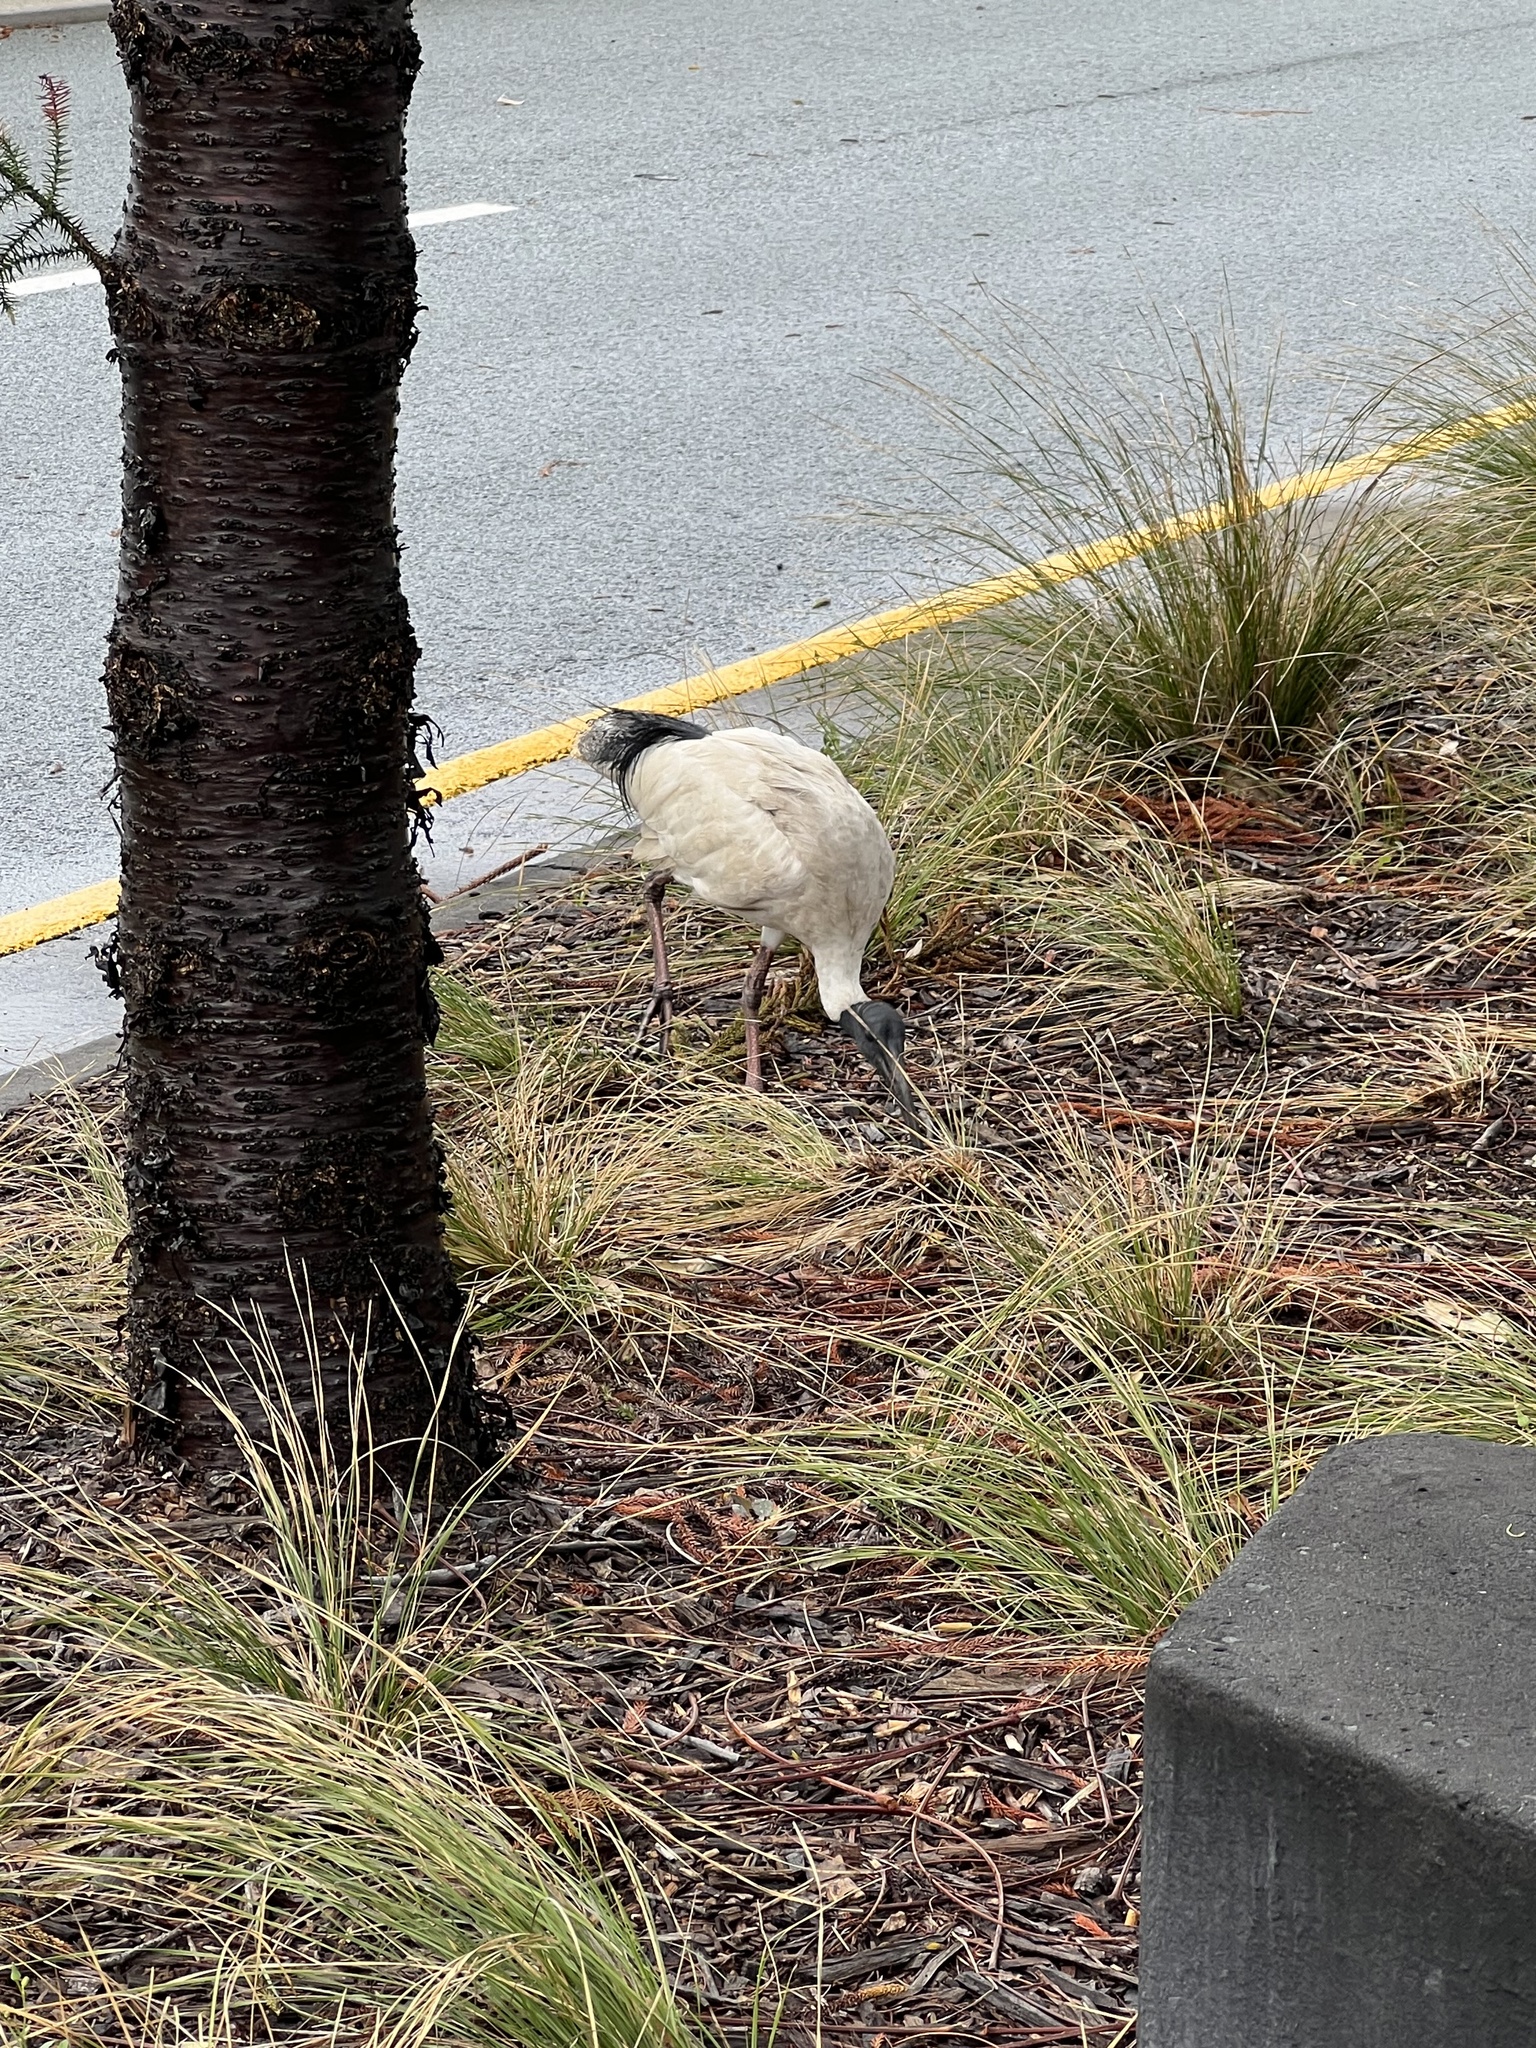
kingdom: Animalia
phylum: Chordata
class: Aves
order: Pelecaniformes
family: Threskiornithidae
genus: Threskiornis
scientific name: Threskiornis molucca
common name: Australian white ibis
